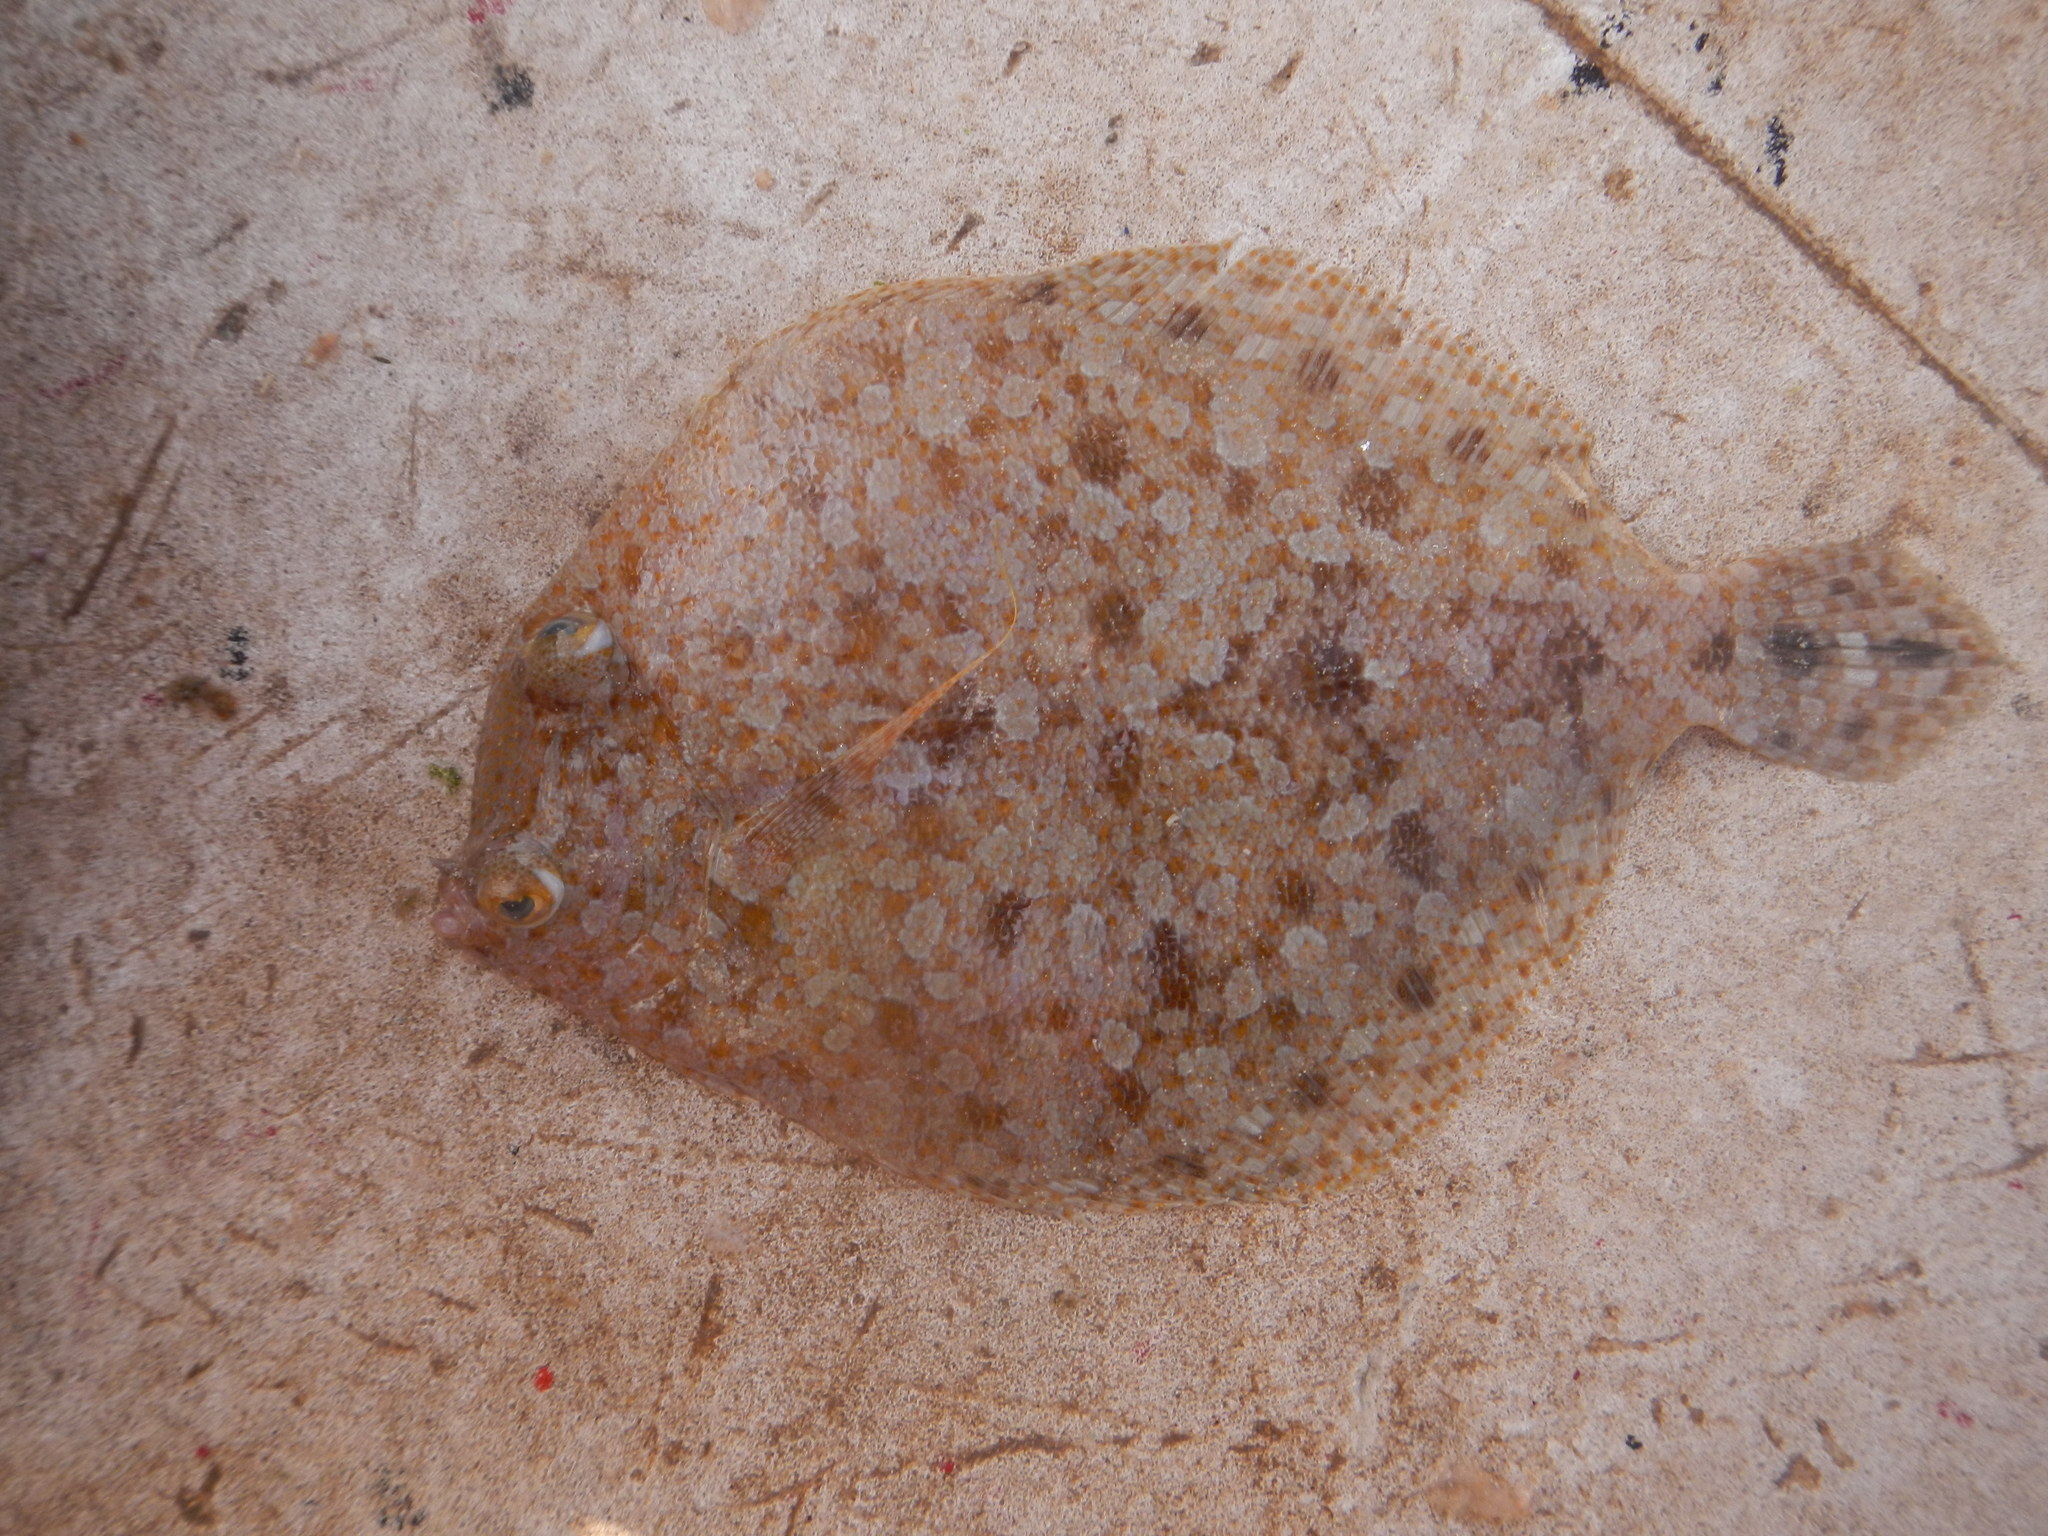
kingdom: Animalia
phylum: Chordata
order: Pleuronectiformes
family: Bothidae
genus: Bothus
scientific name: Bothus robinsi
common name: Twospot flounder
